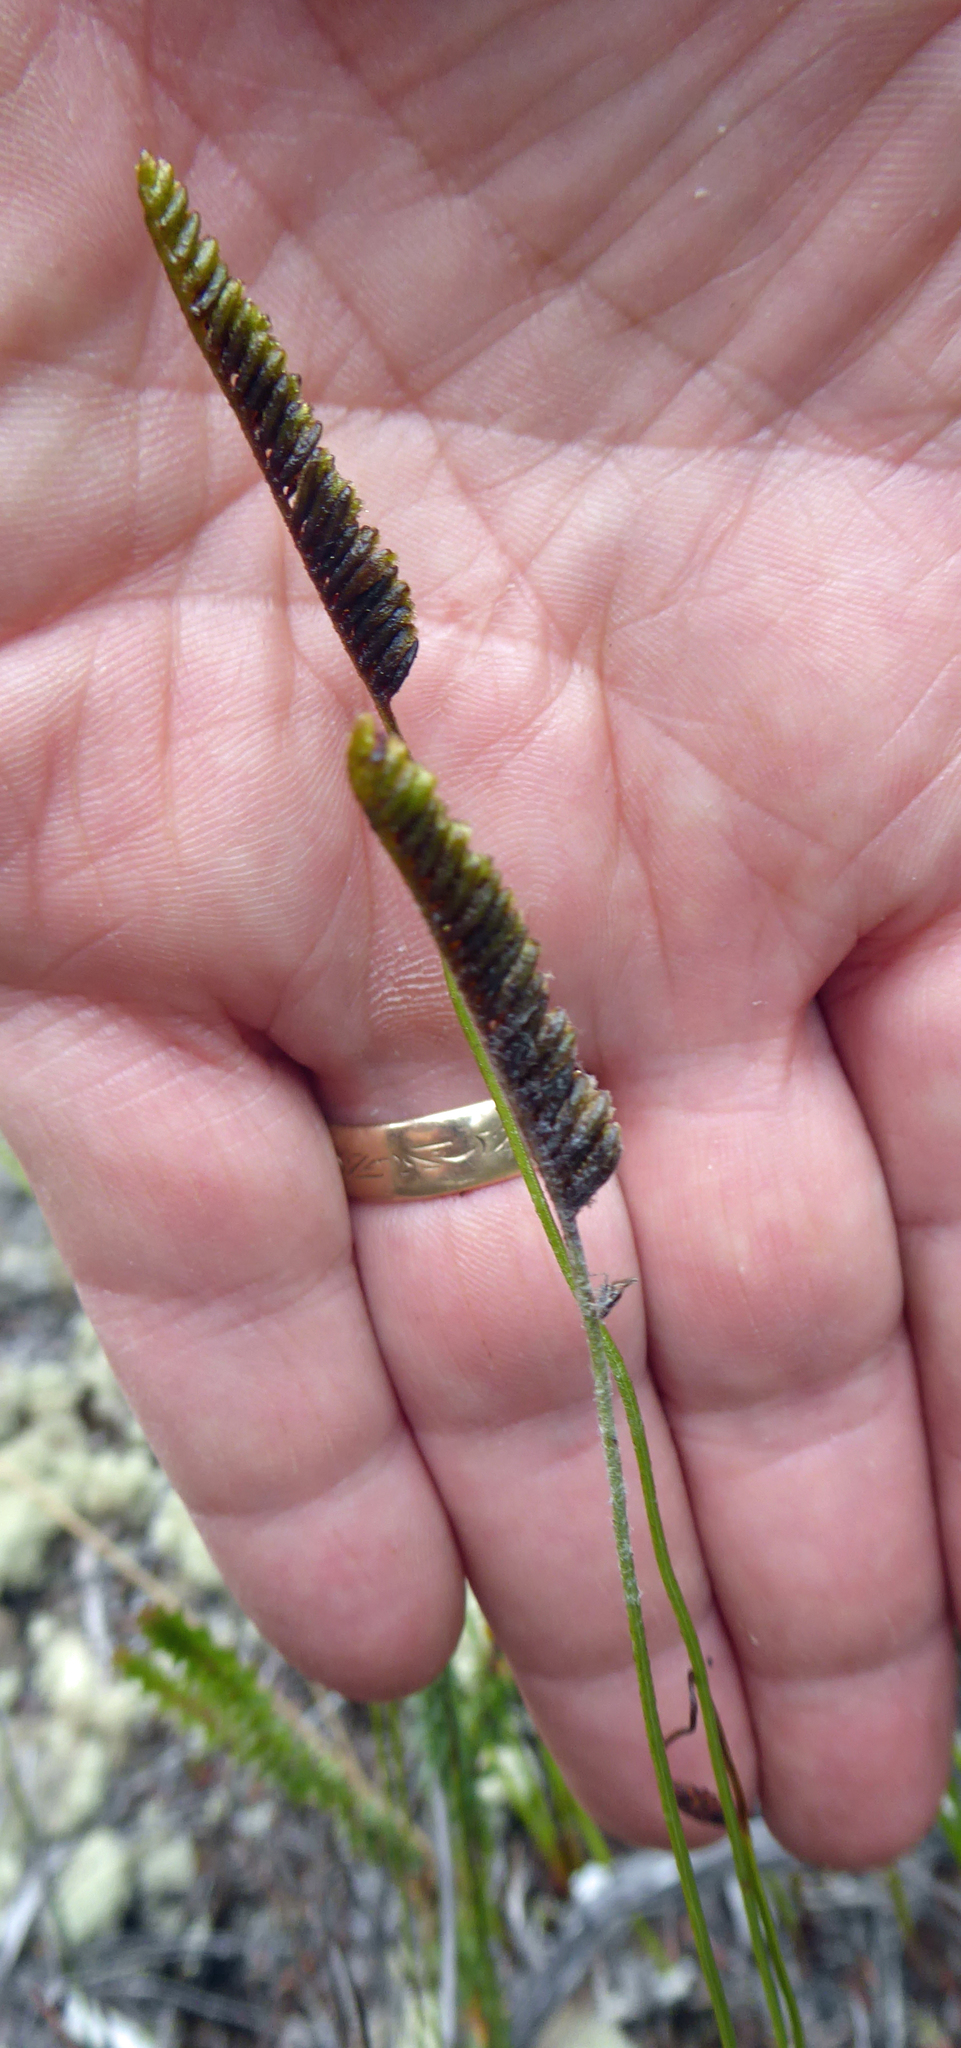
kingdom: Plantae
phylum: Tracheophyta
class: Polypodiopsida
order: Schizaeales
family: Schizaeaceae
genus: Microschizaea
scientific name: Microschizaea fistulosa
